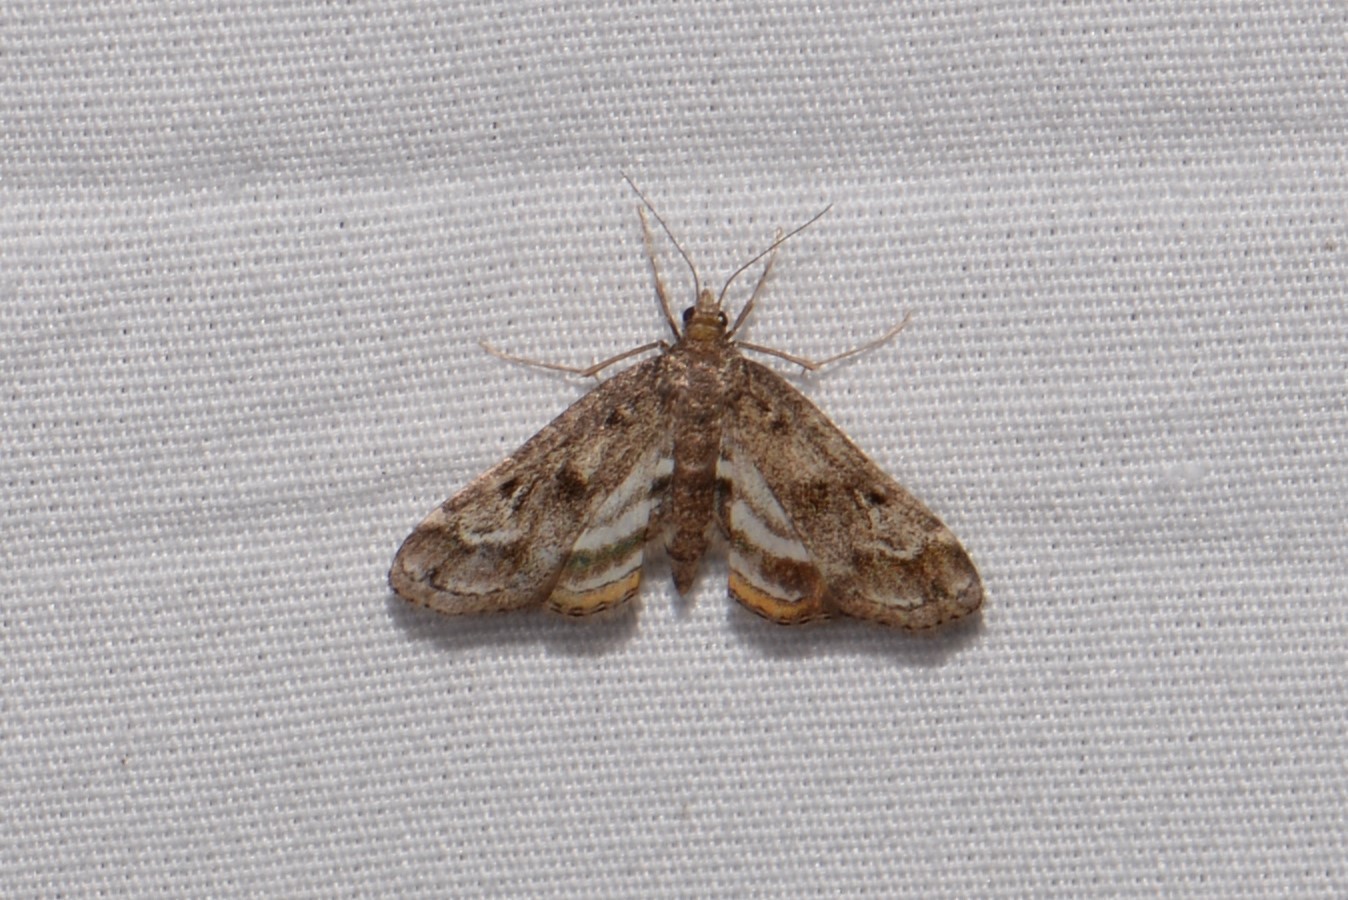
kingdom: Animalia
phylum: Arthropoda
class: Insecta
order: Lepidoptera
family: Crambidae
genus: Parapoynx
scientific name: Parapoynx obscuralis
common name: American china-mark
